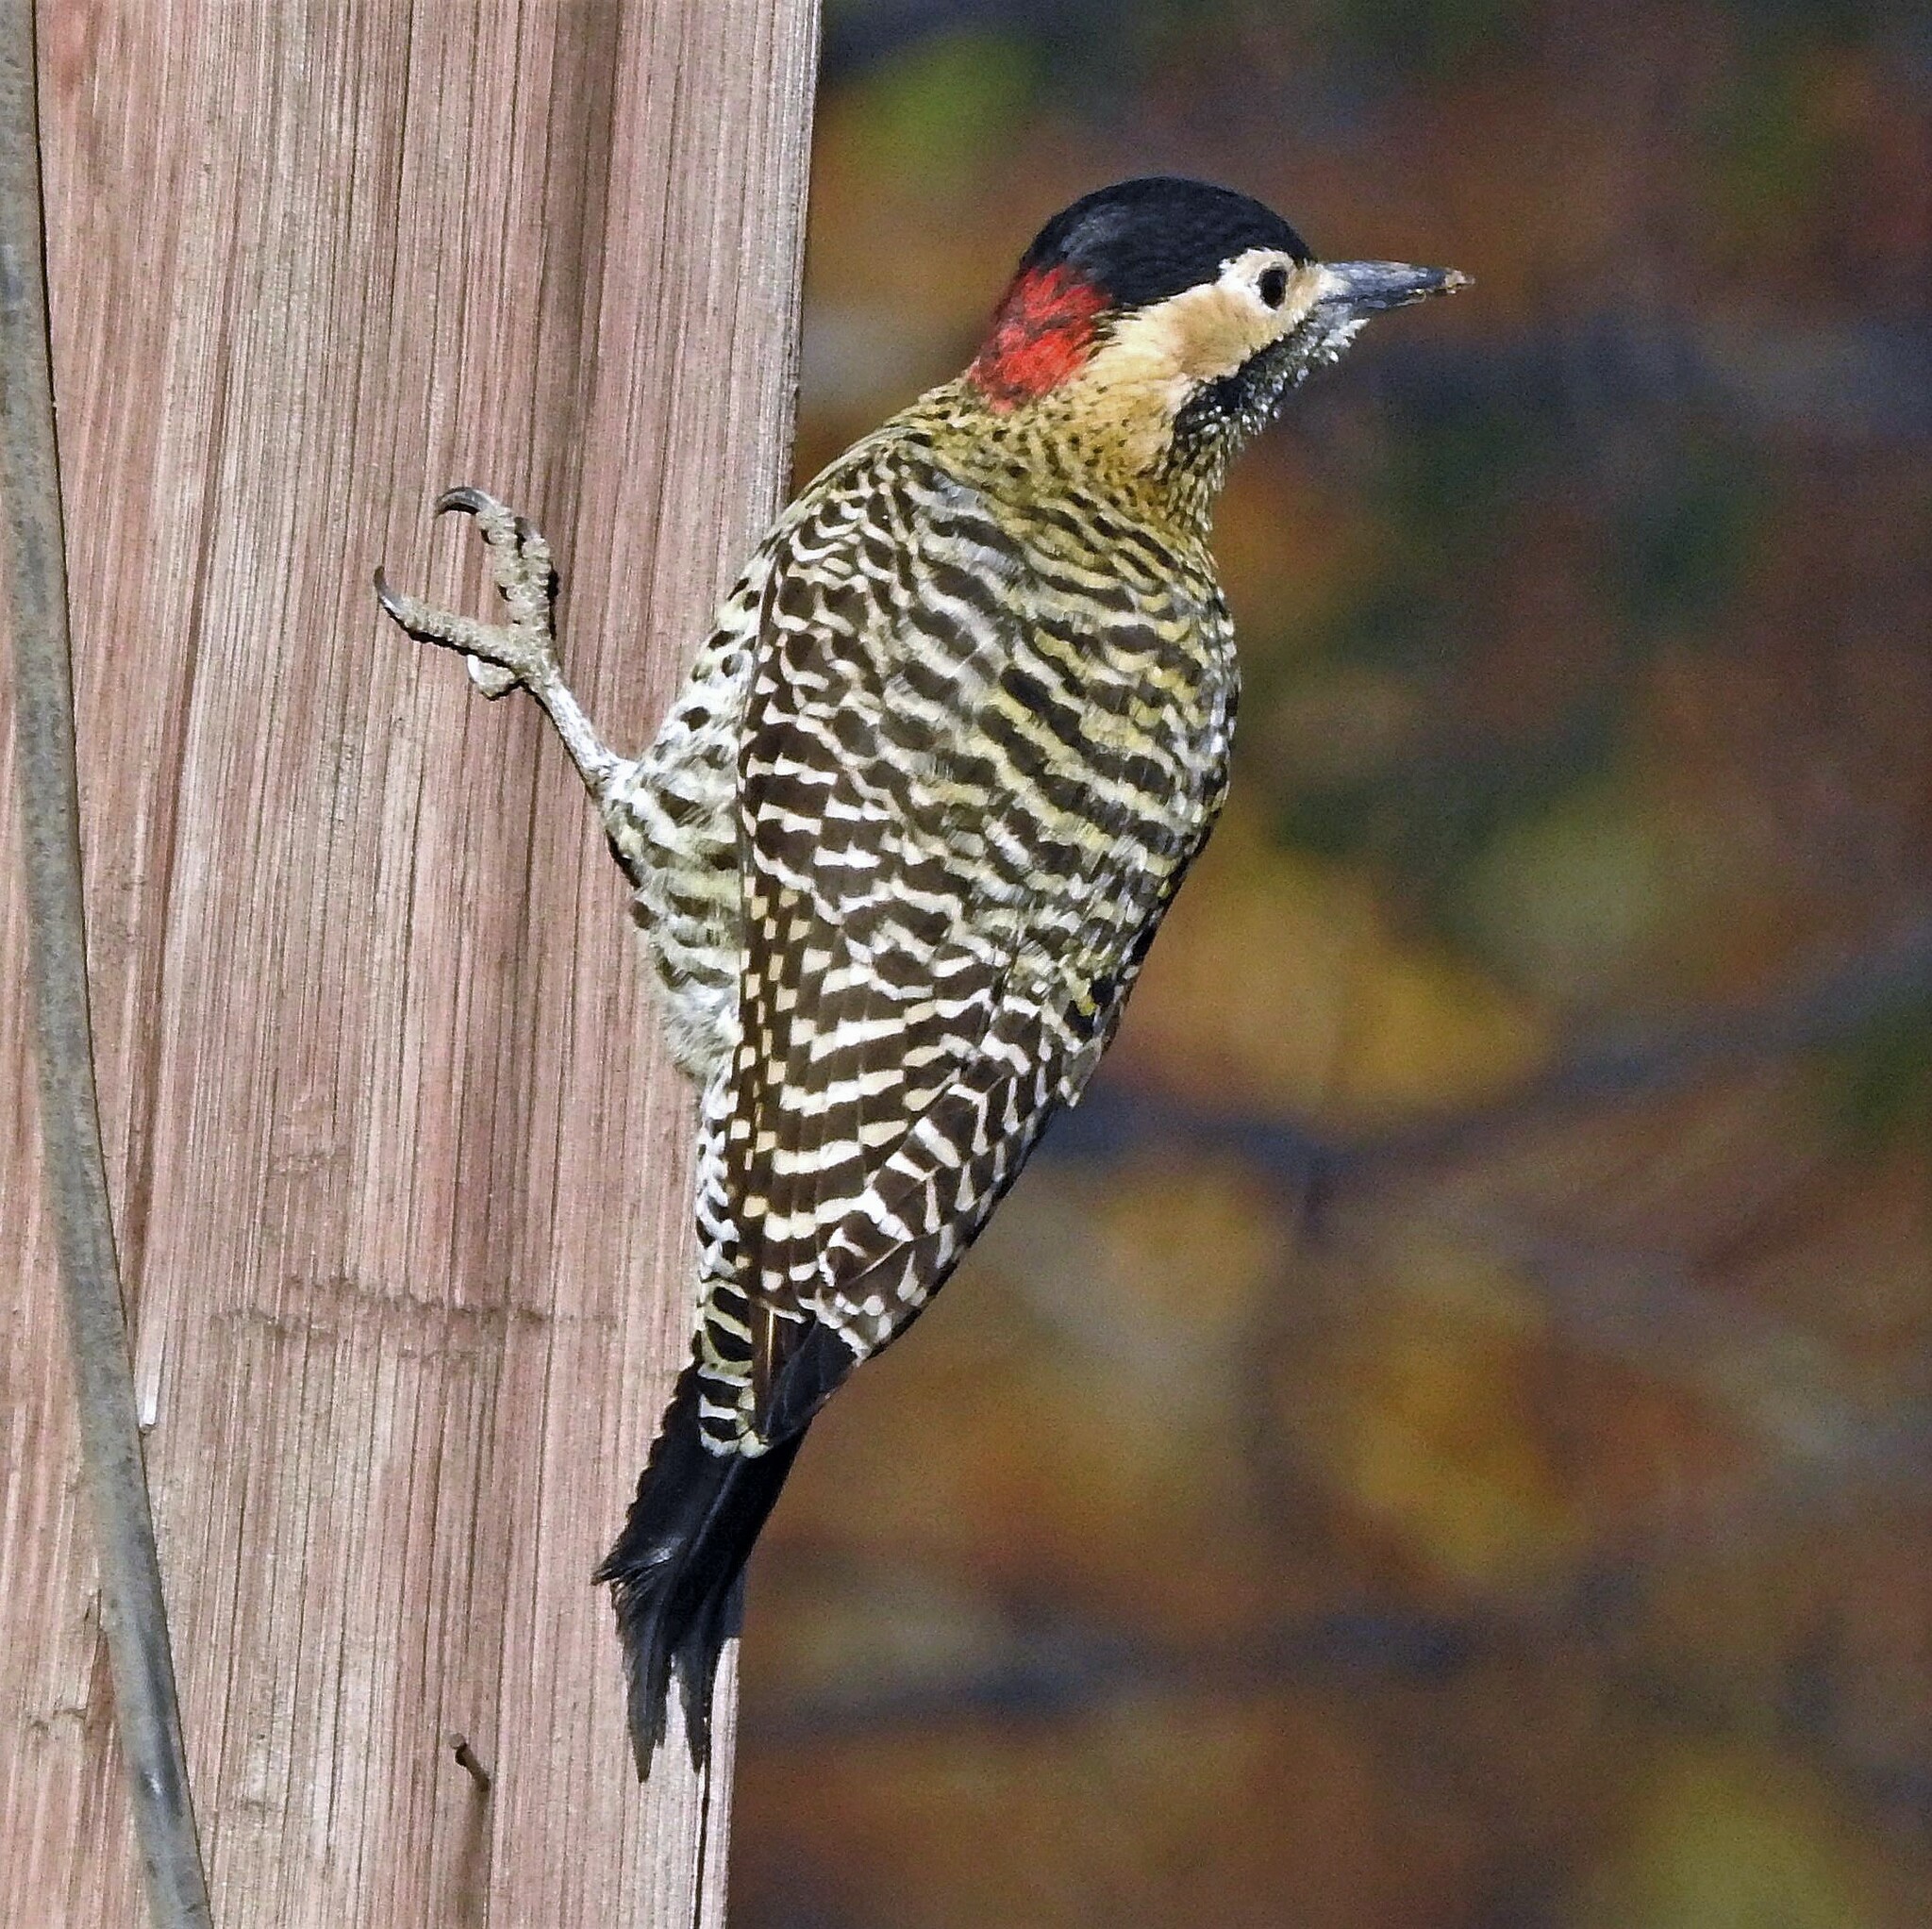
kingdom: Animalia
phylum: Chordata
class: Aves
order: Piciformes
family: Picidae
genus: Colaptes
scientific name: Colaptes melanochloros
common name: Green-barred woodpecker
